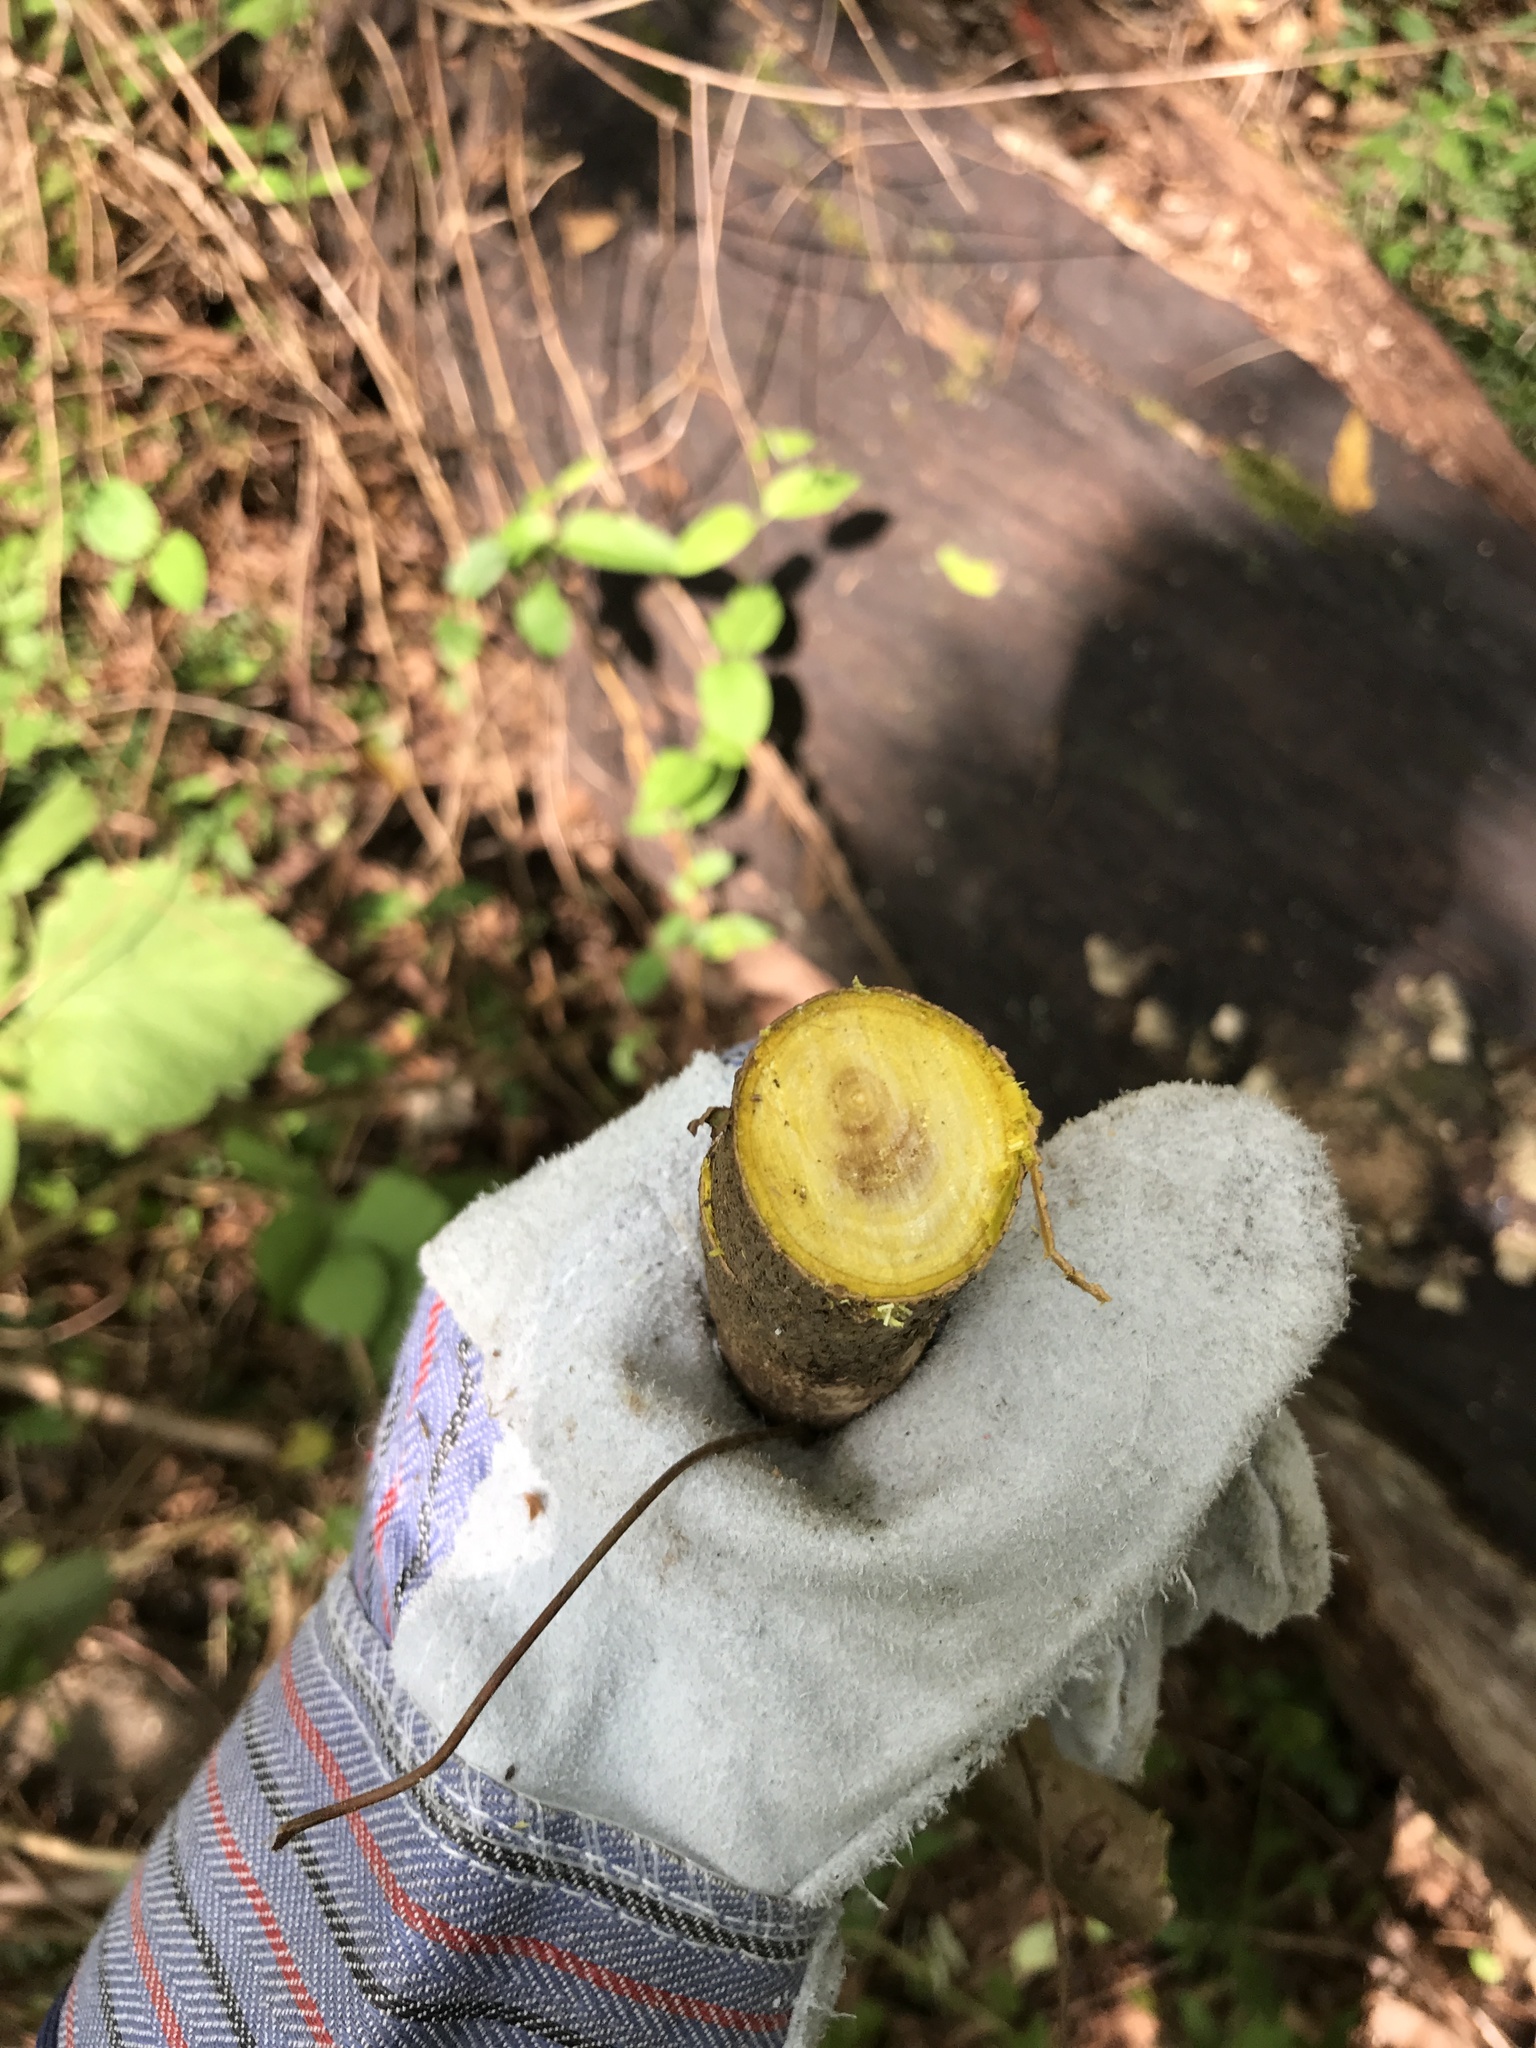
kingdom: Plantae
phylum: Tracheophyta
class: Magnoliopsida
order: Sapindales
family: Rutaceae
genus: Phellodendron
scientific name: Phellodendron amurense
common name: Amur corktree
